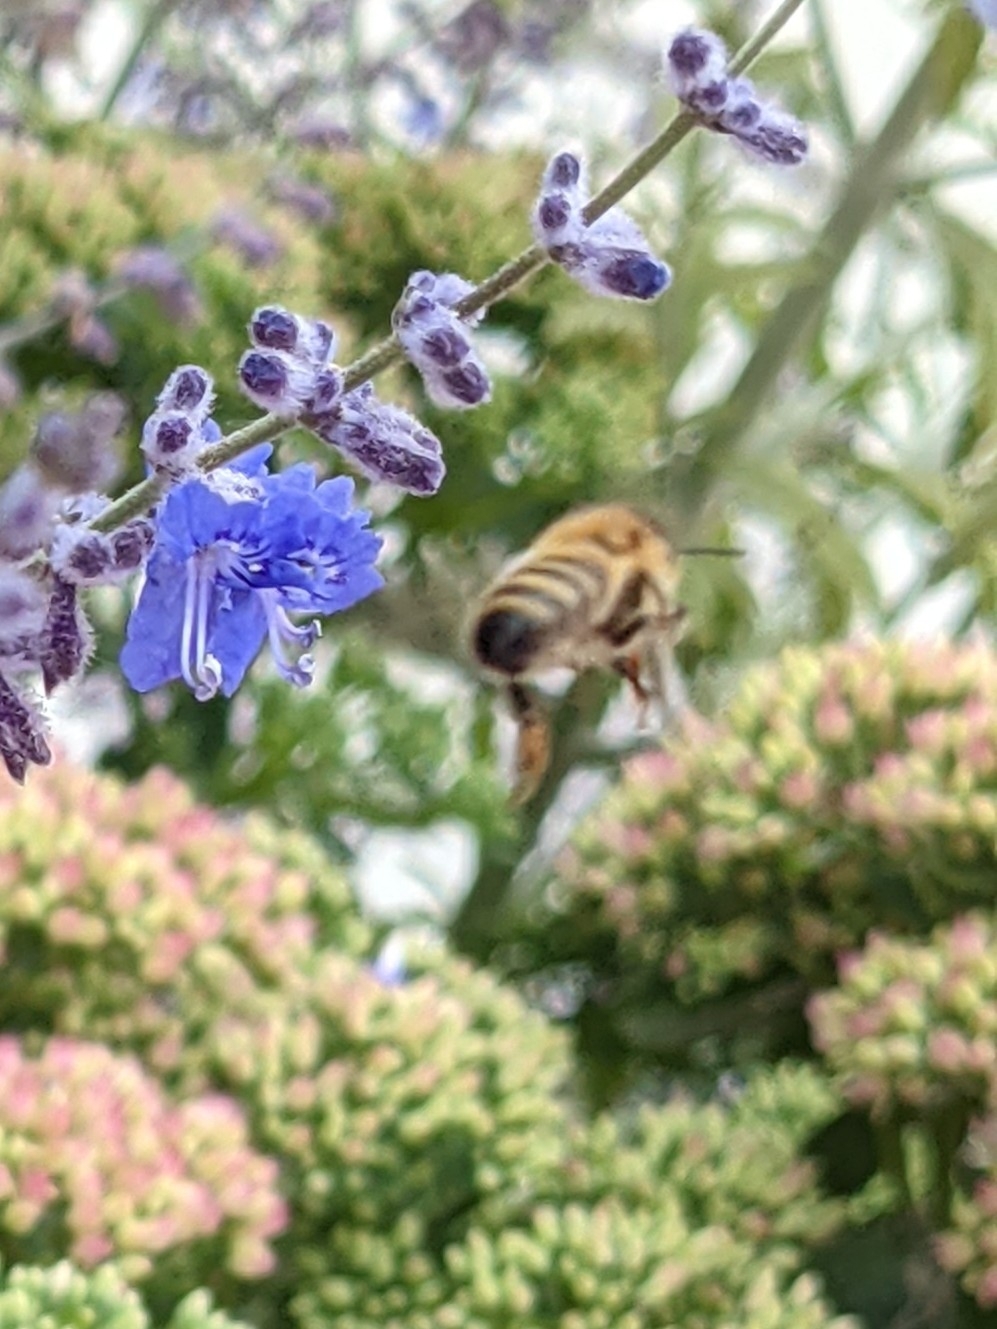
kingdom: Animalia
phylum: Arthropoda
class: Insecta
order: Hymenoptera
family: Apidae
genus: Apis
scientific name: Apis mellifera
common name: Honey bee
